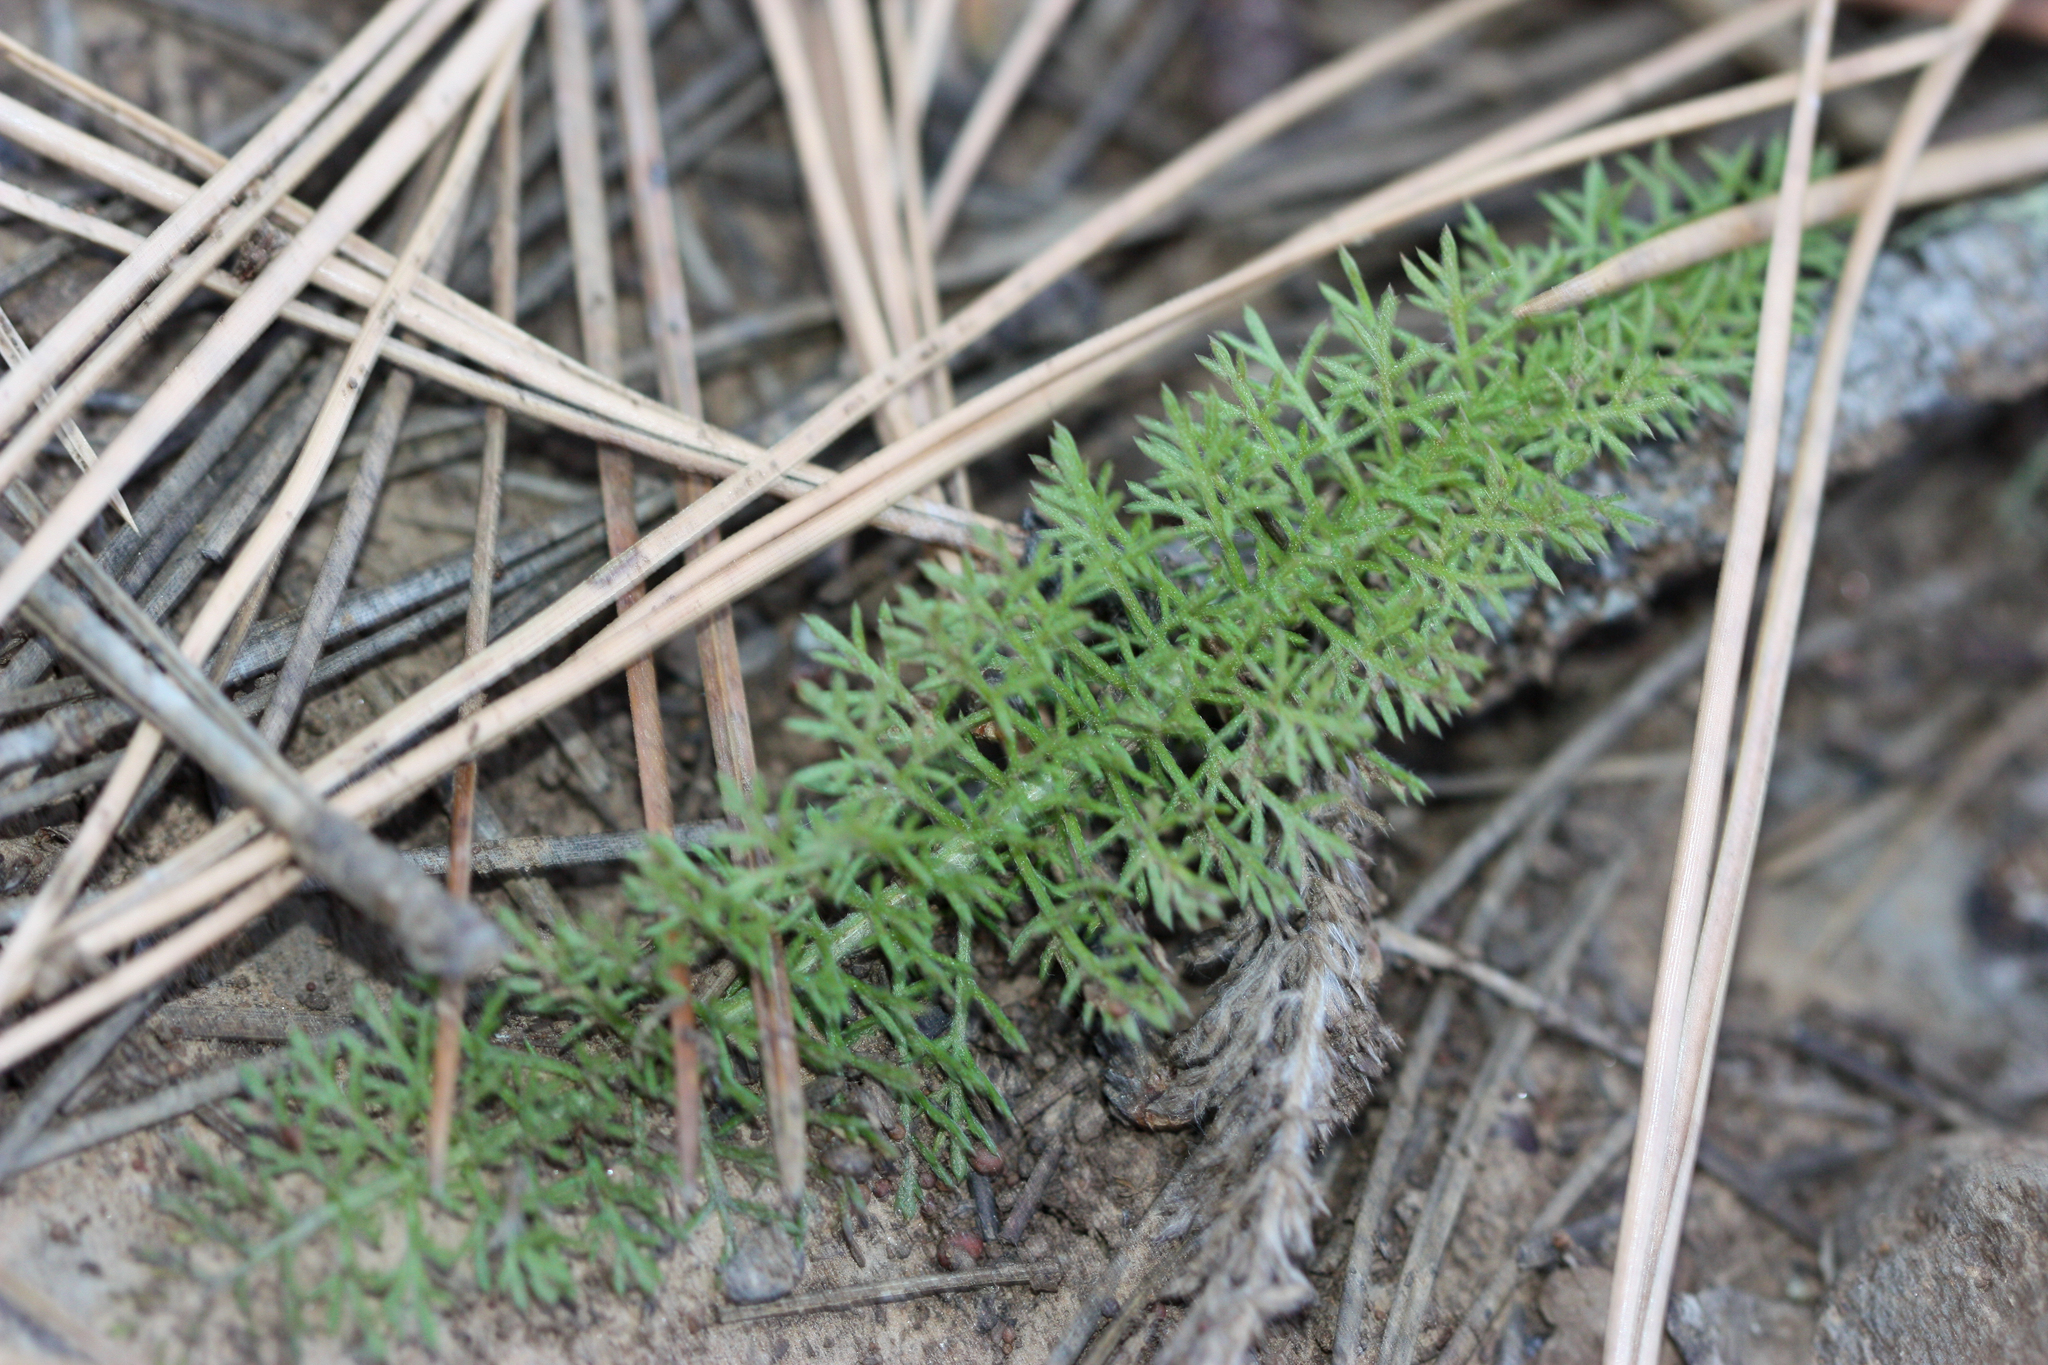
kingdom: Plantae
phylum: Tracheophyta
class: Magnoliopsida
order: Asterales
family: Asteraceae
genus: Achillea
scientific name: Achillea millefolium
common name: Yarrow
